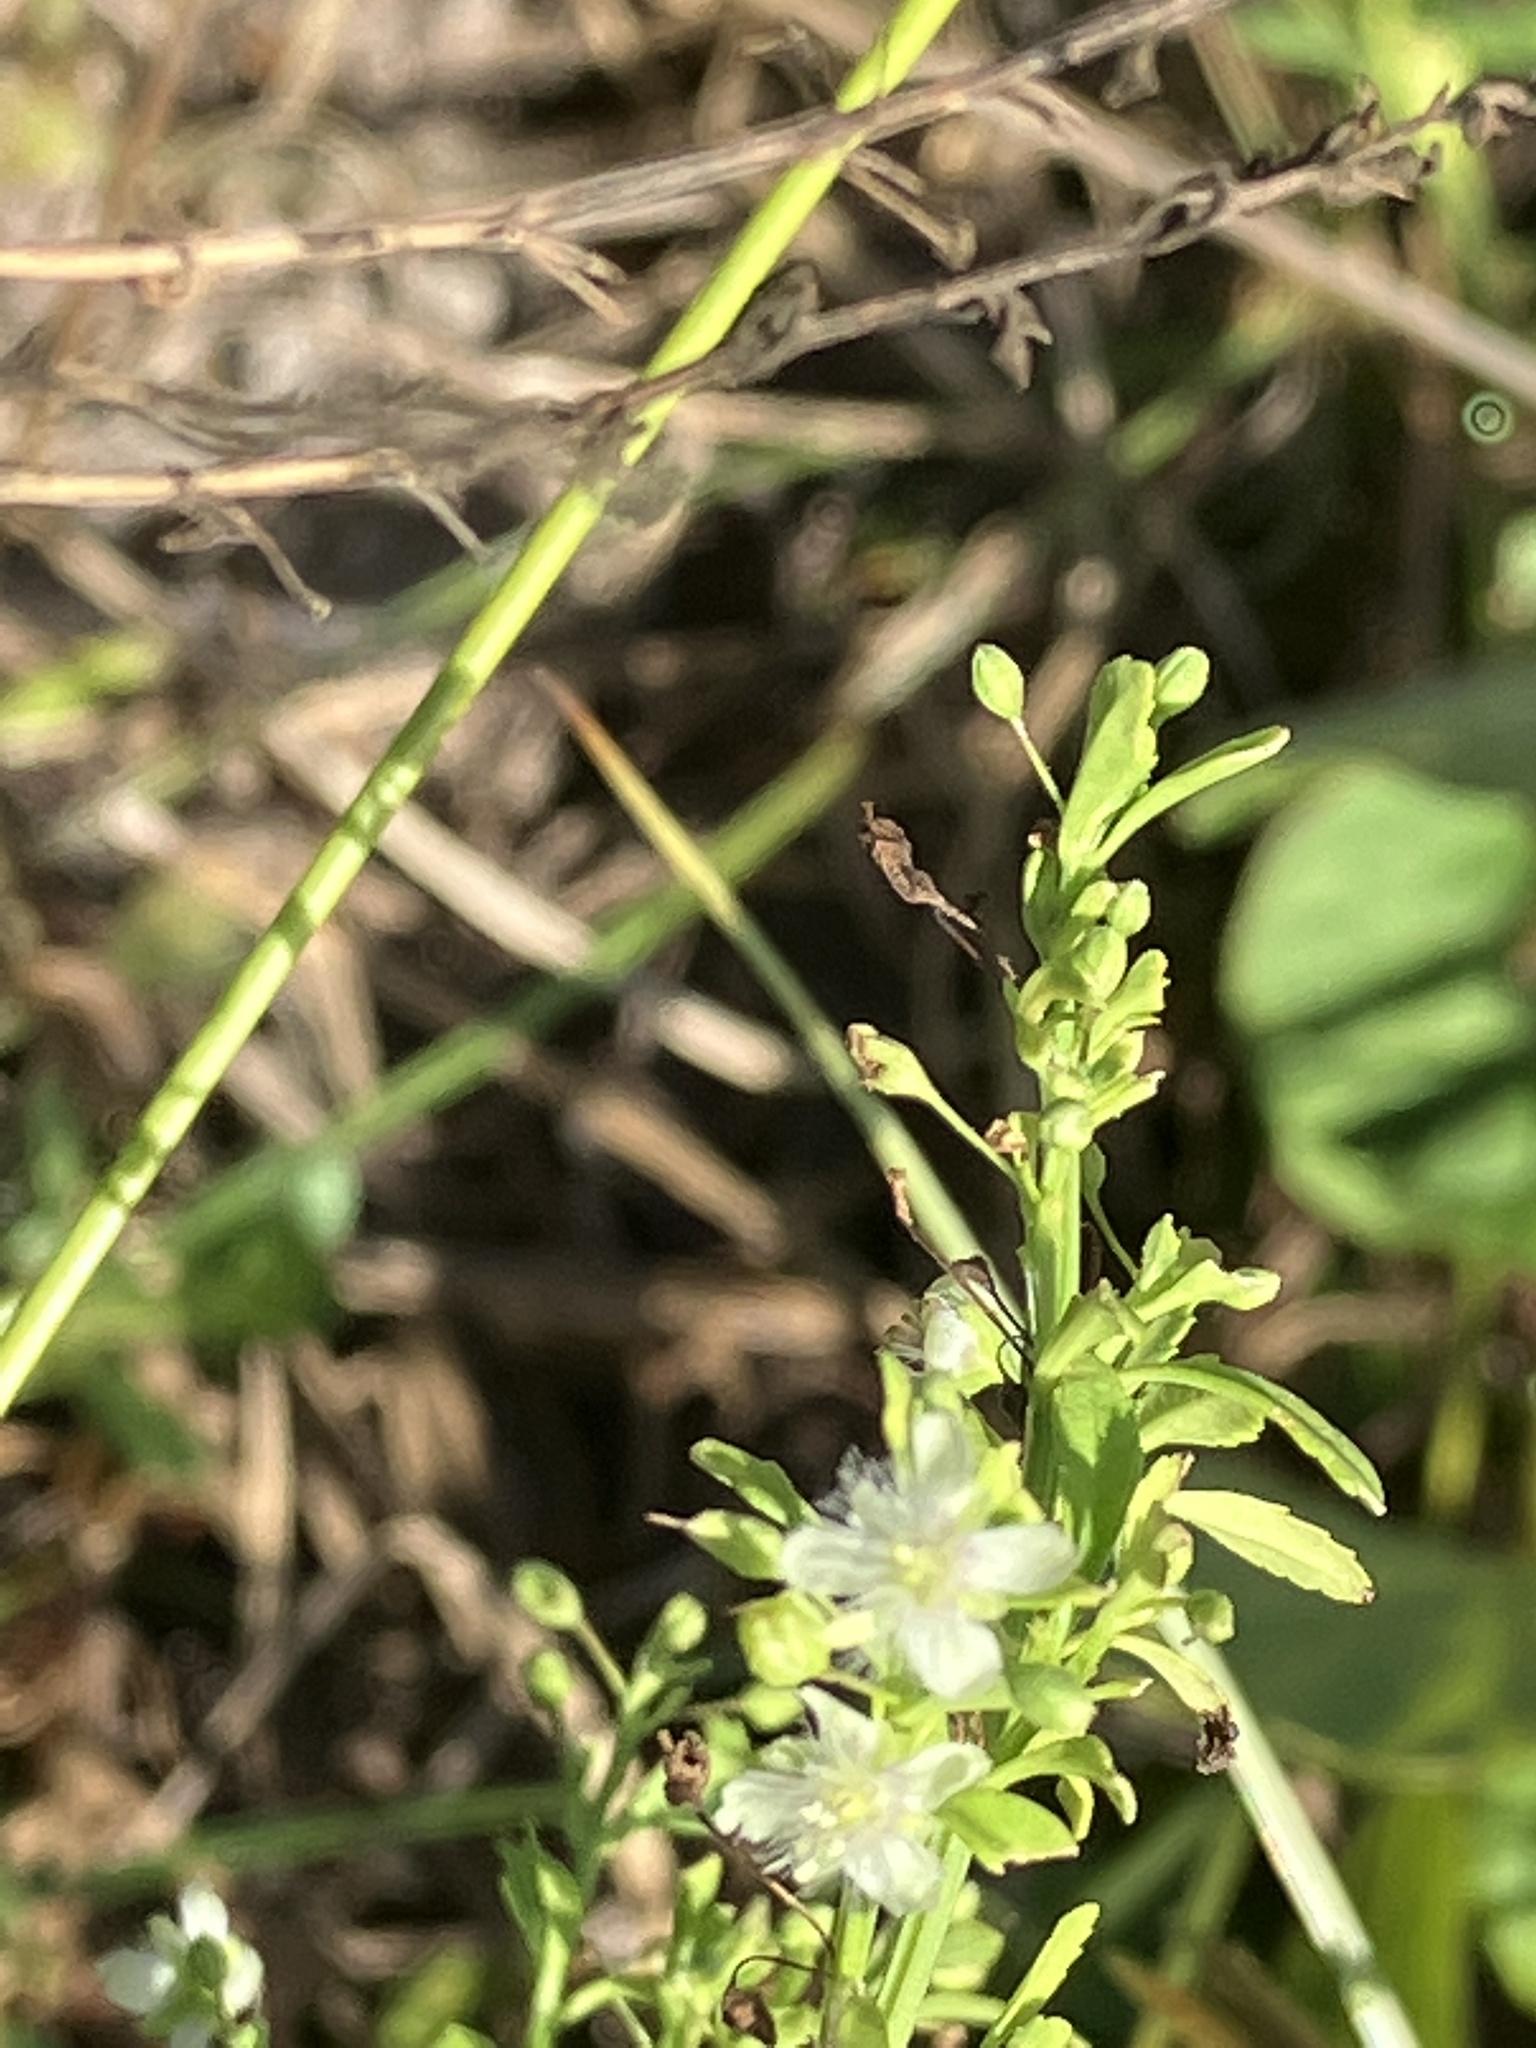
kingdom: Plantae
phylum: Tracheophyta
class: Magnoliopsida
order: Lamiales
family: Plantaginaceae
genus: Scoparia
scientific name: Scoparia dulcis
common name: Scoparia-weed
